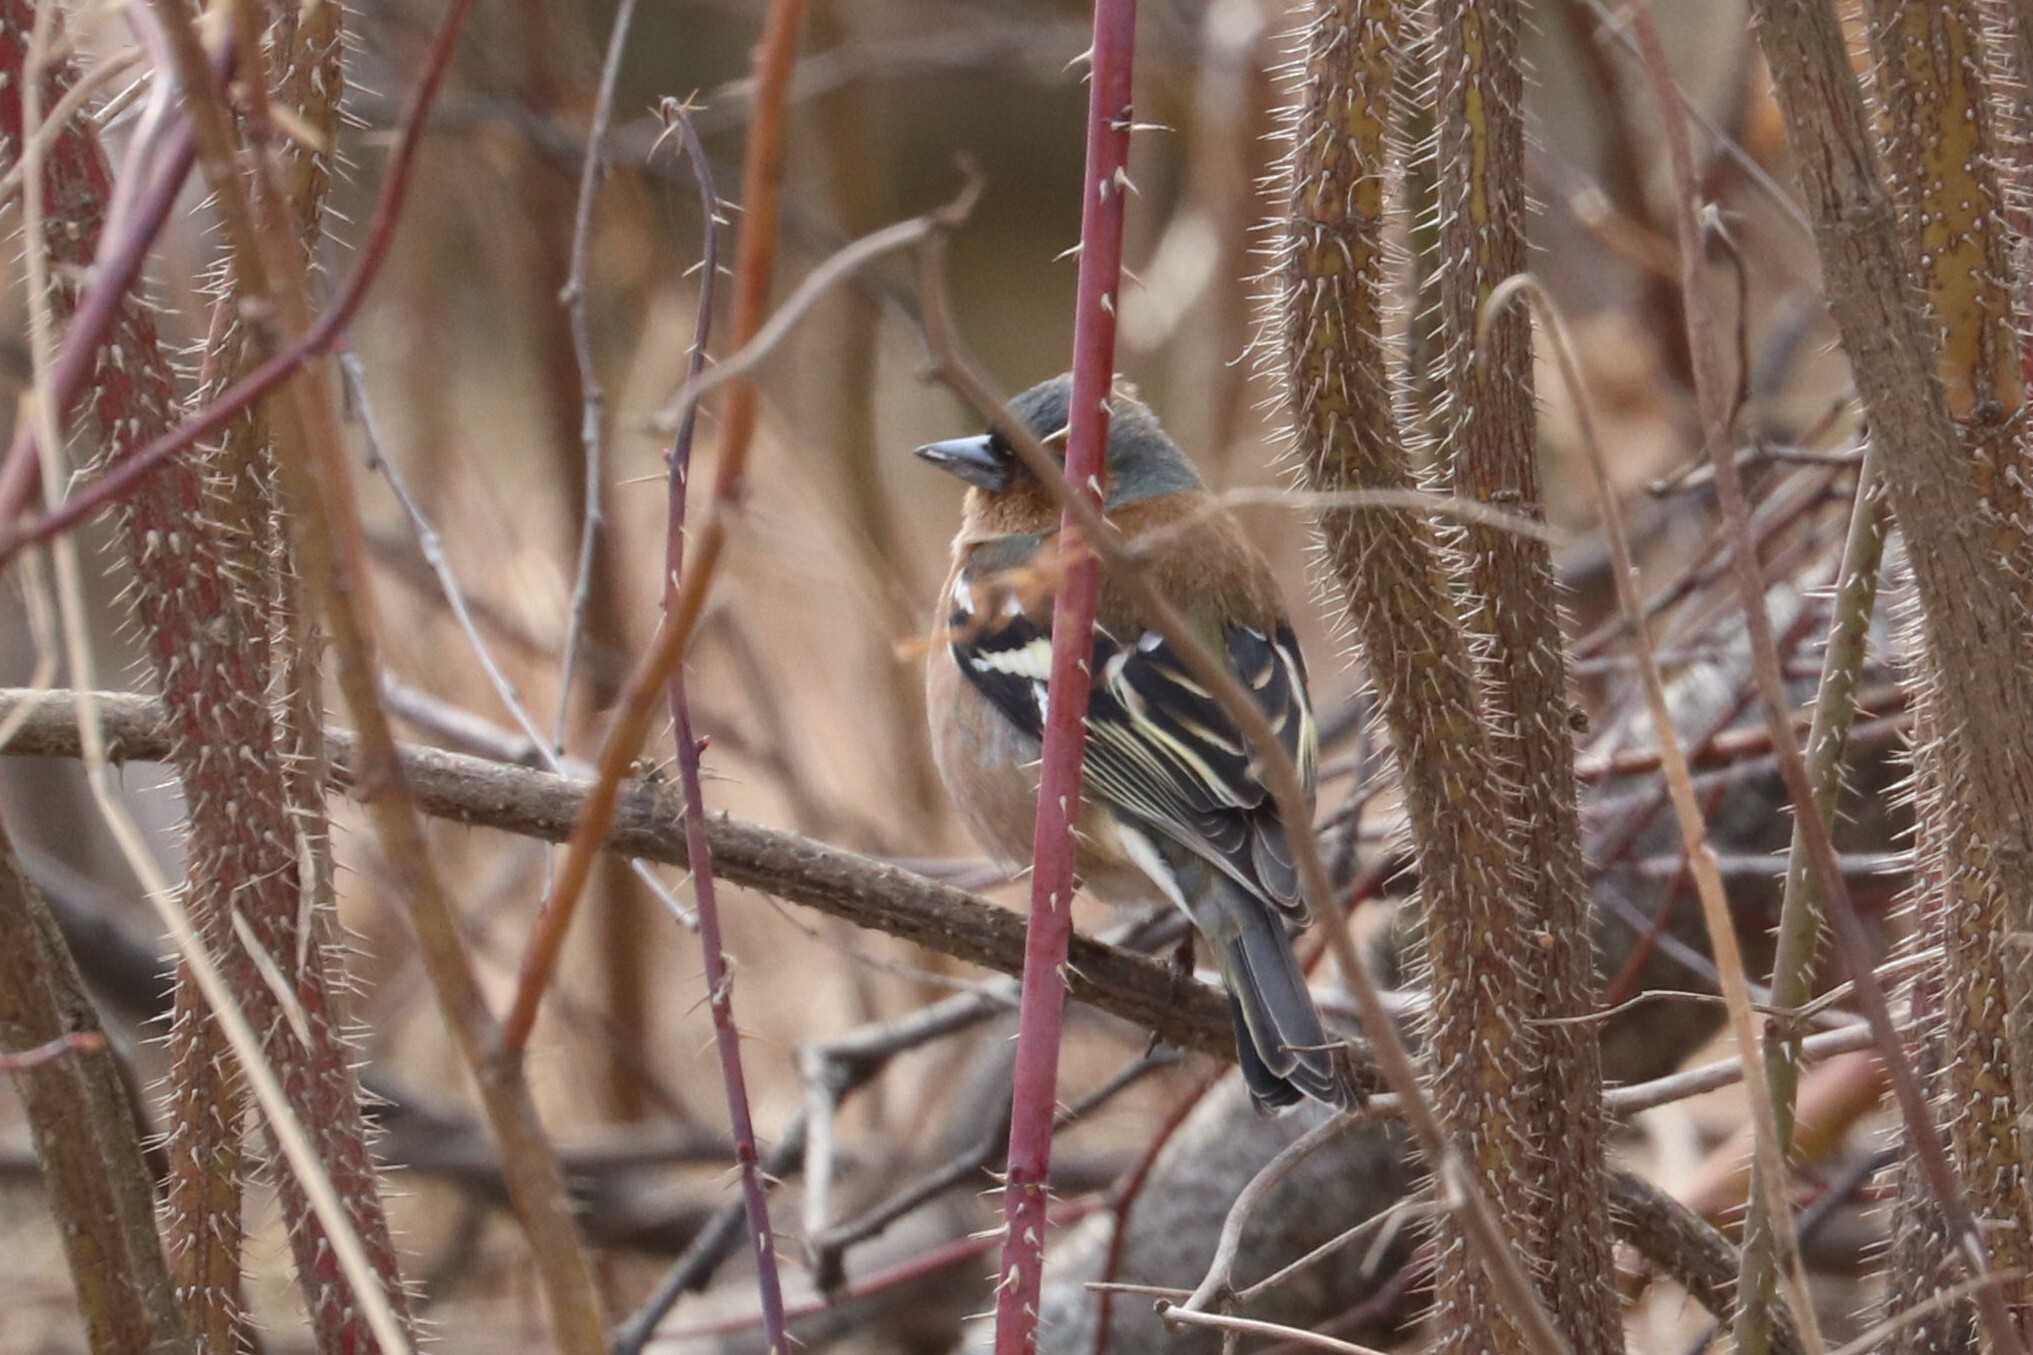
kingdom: Animalia
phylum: Chordata
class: Aves
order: Passeriformes
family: Fringillidae
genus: Fringilla
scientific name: Fringilla coelebs
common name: Common chaffinch
